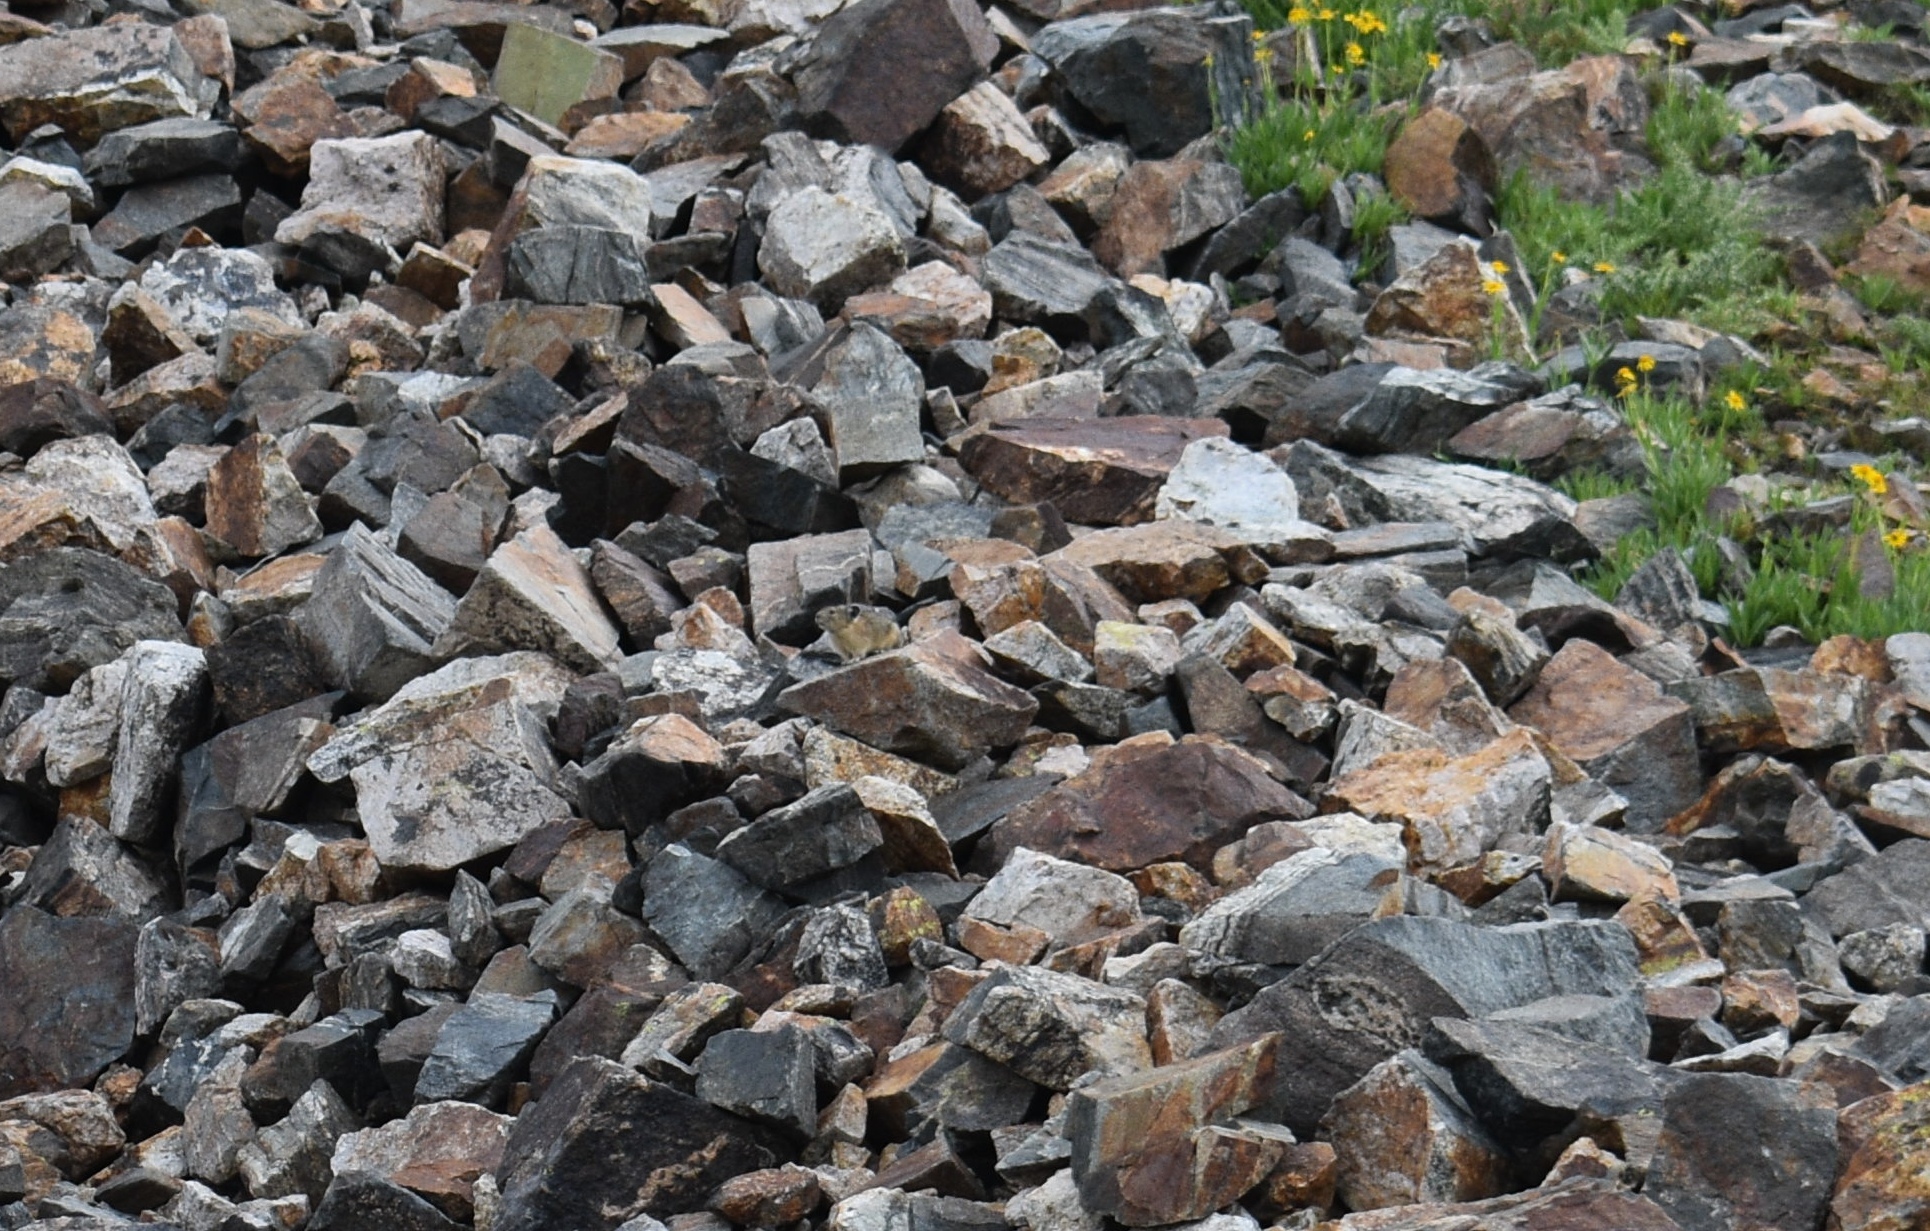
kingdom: Animalia
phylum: Chordata
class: Mammalia
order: Lagomorpha
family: Ochotonidae
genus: Ochotona
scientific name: Ochotona princeps
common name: American pika
